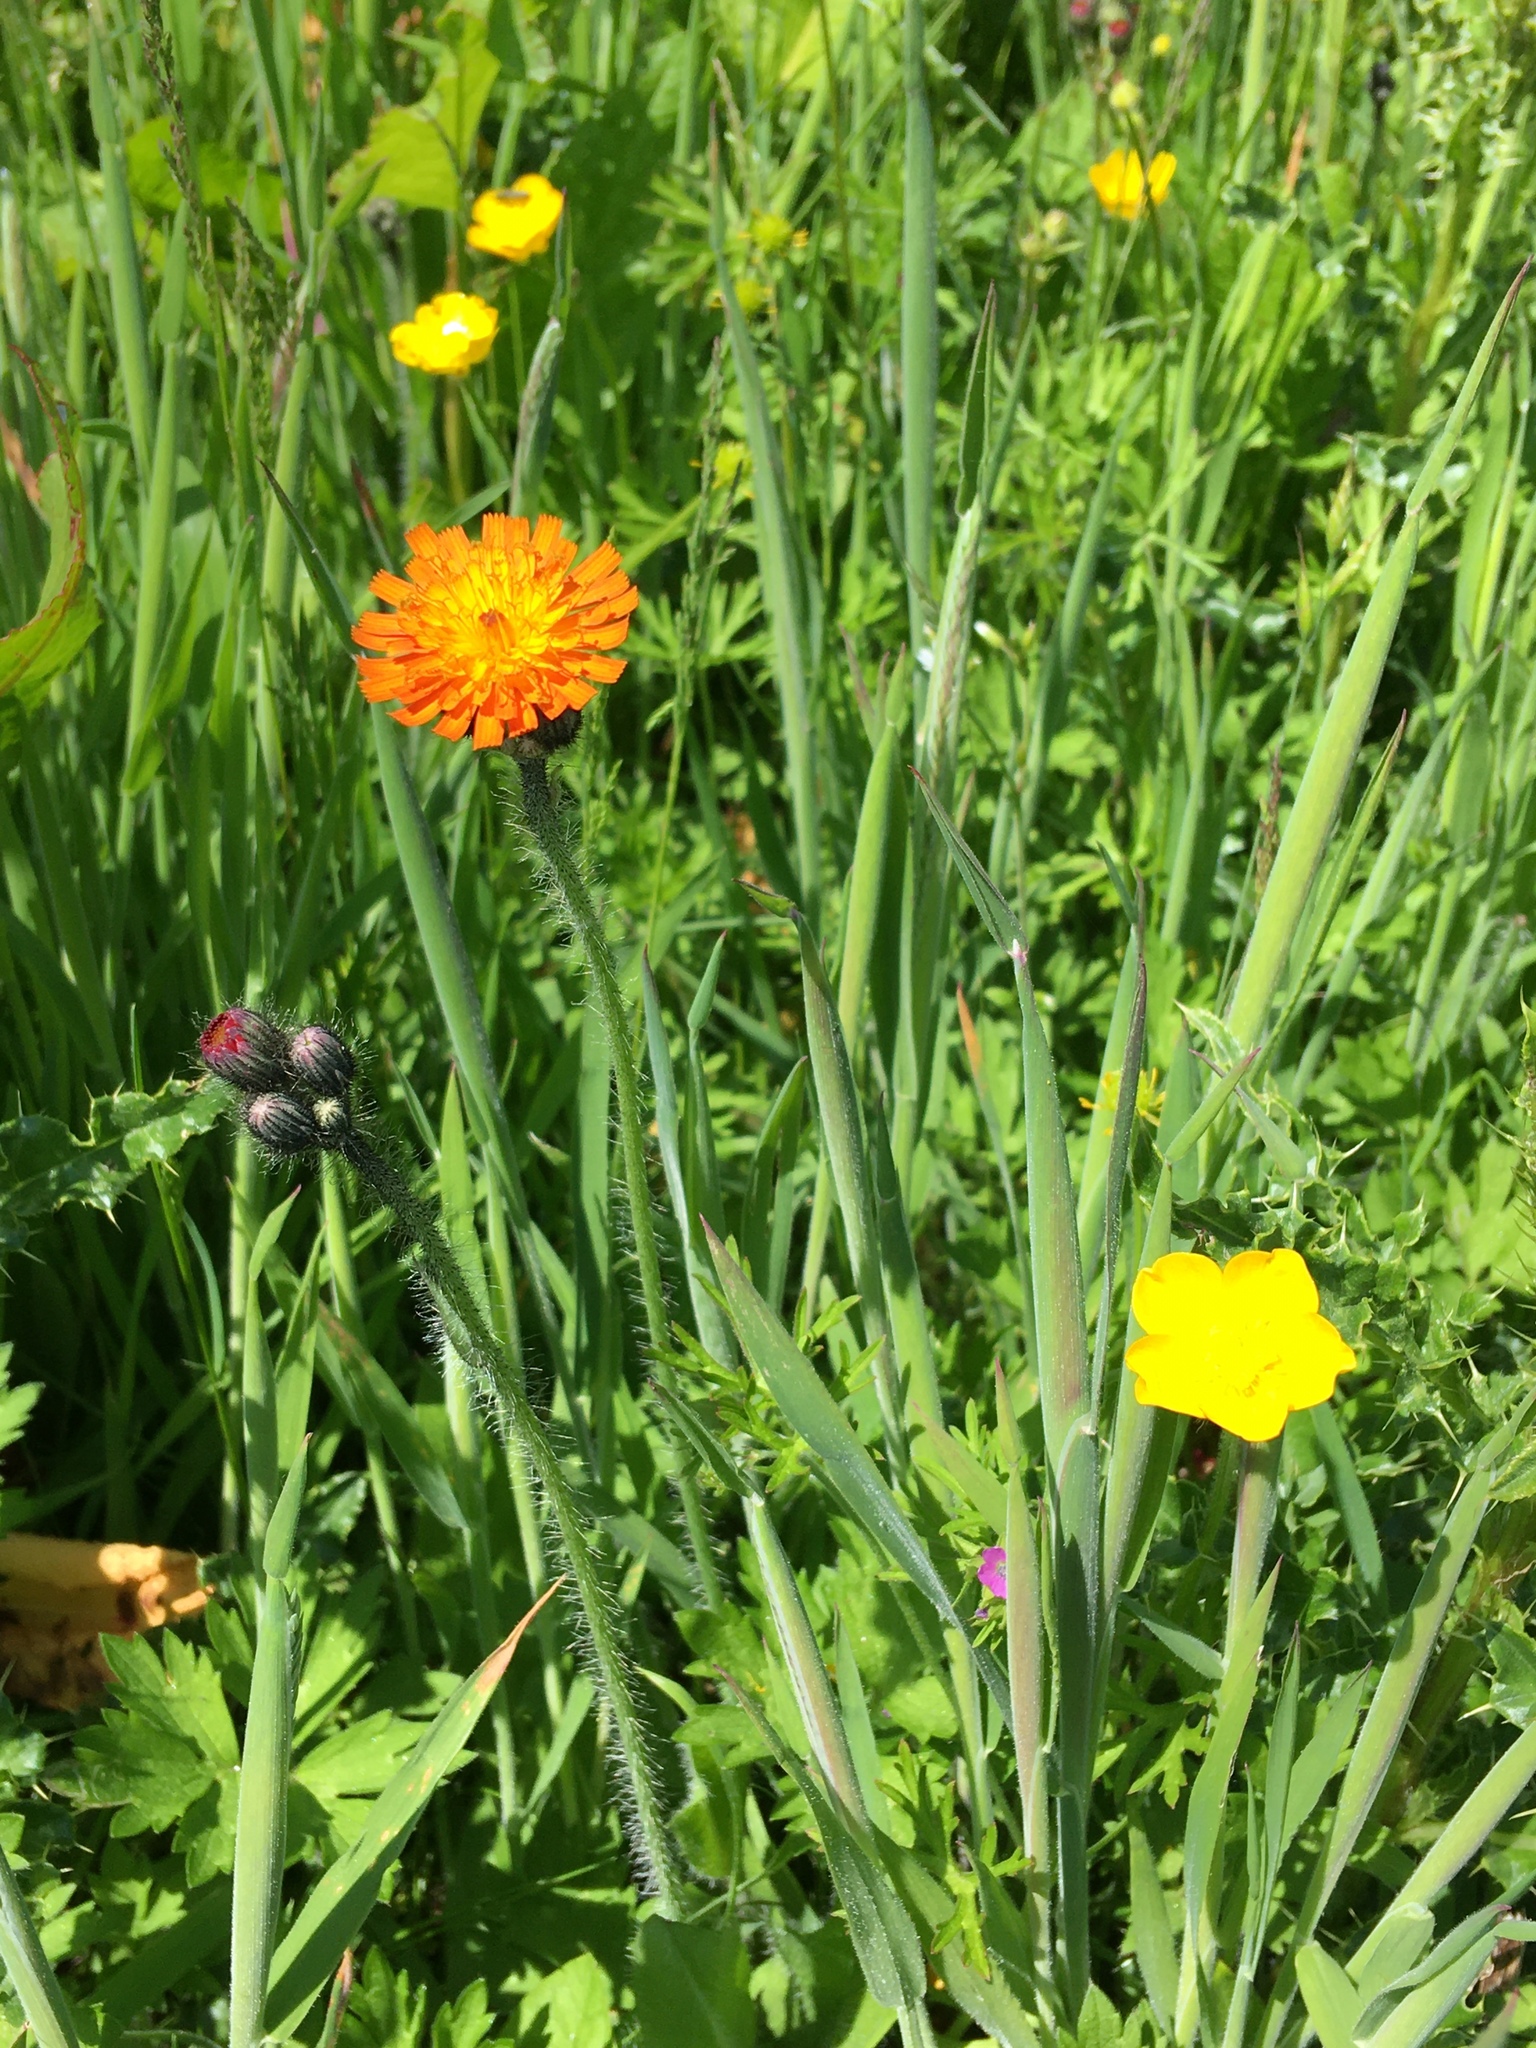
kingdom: Plantae
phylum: Tracheophyta
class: Magnoliopsida
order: Asterales
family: Asteraceae
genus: Pilosella
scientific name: Pilosella aurantiaca
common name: Fox-and-cubs
